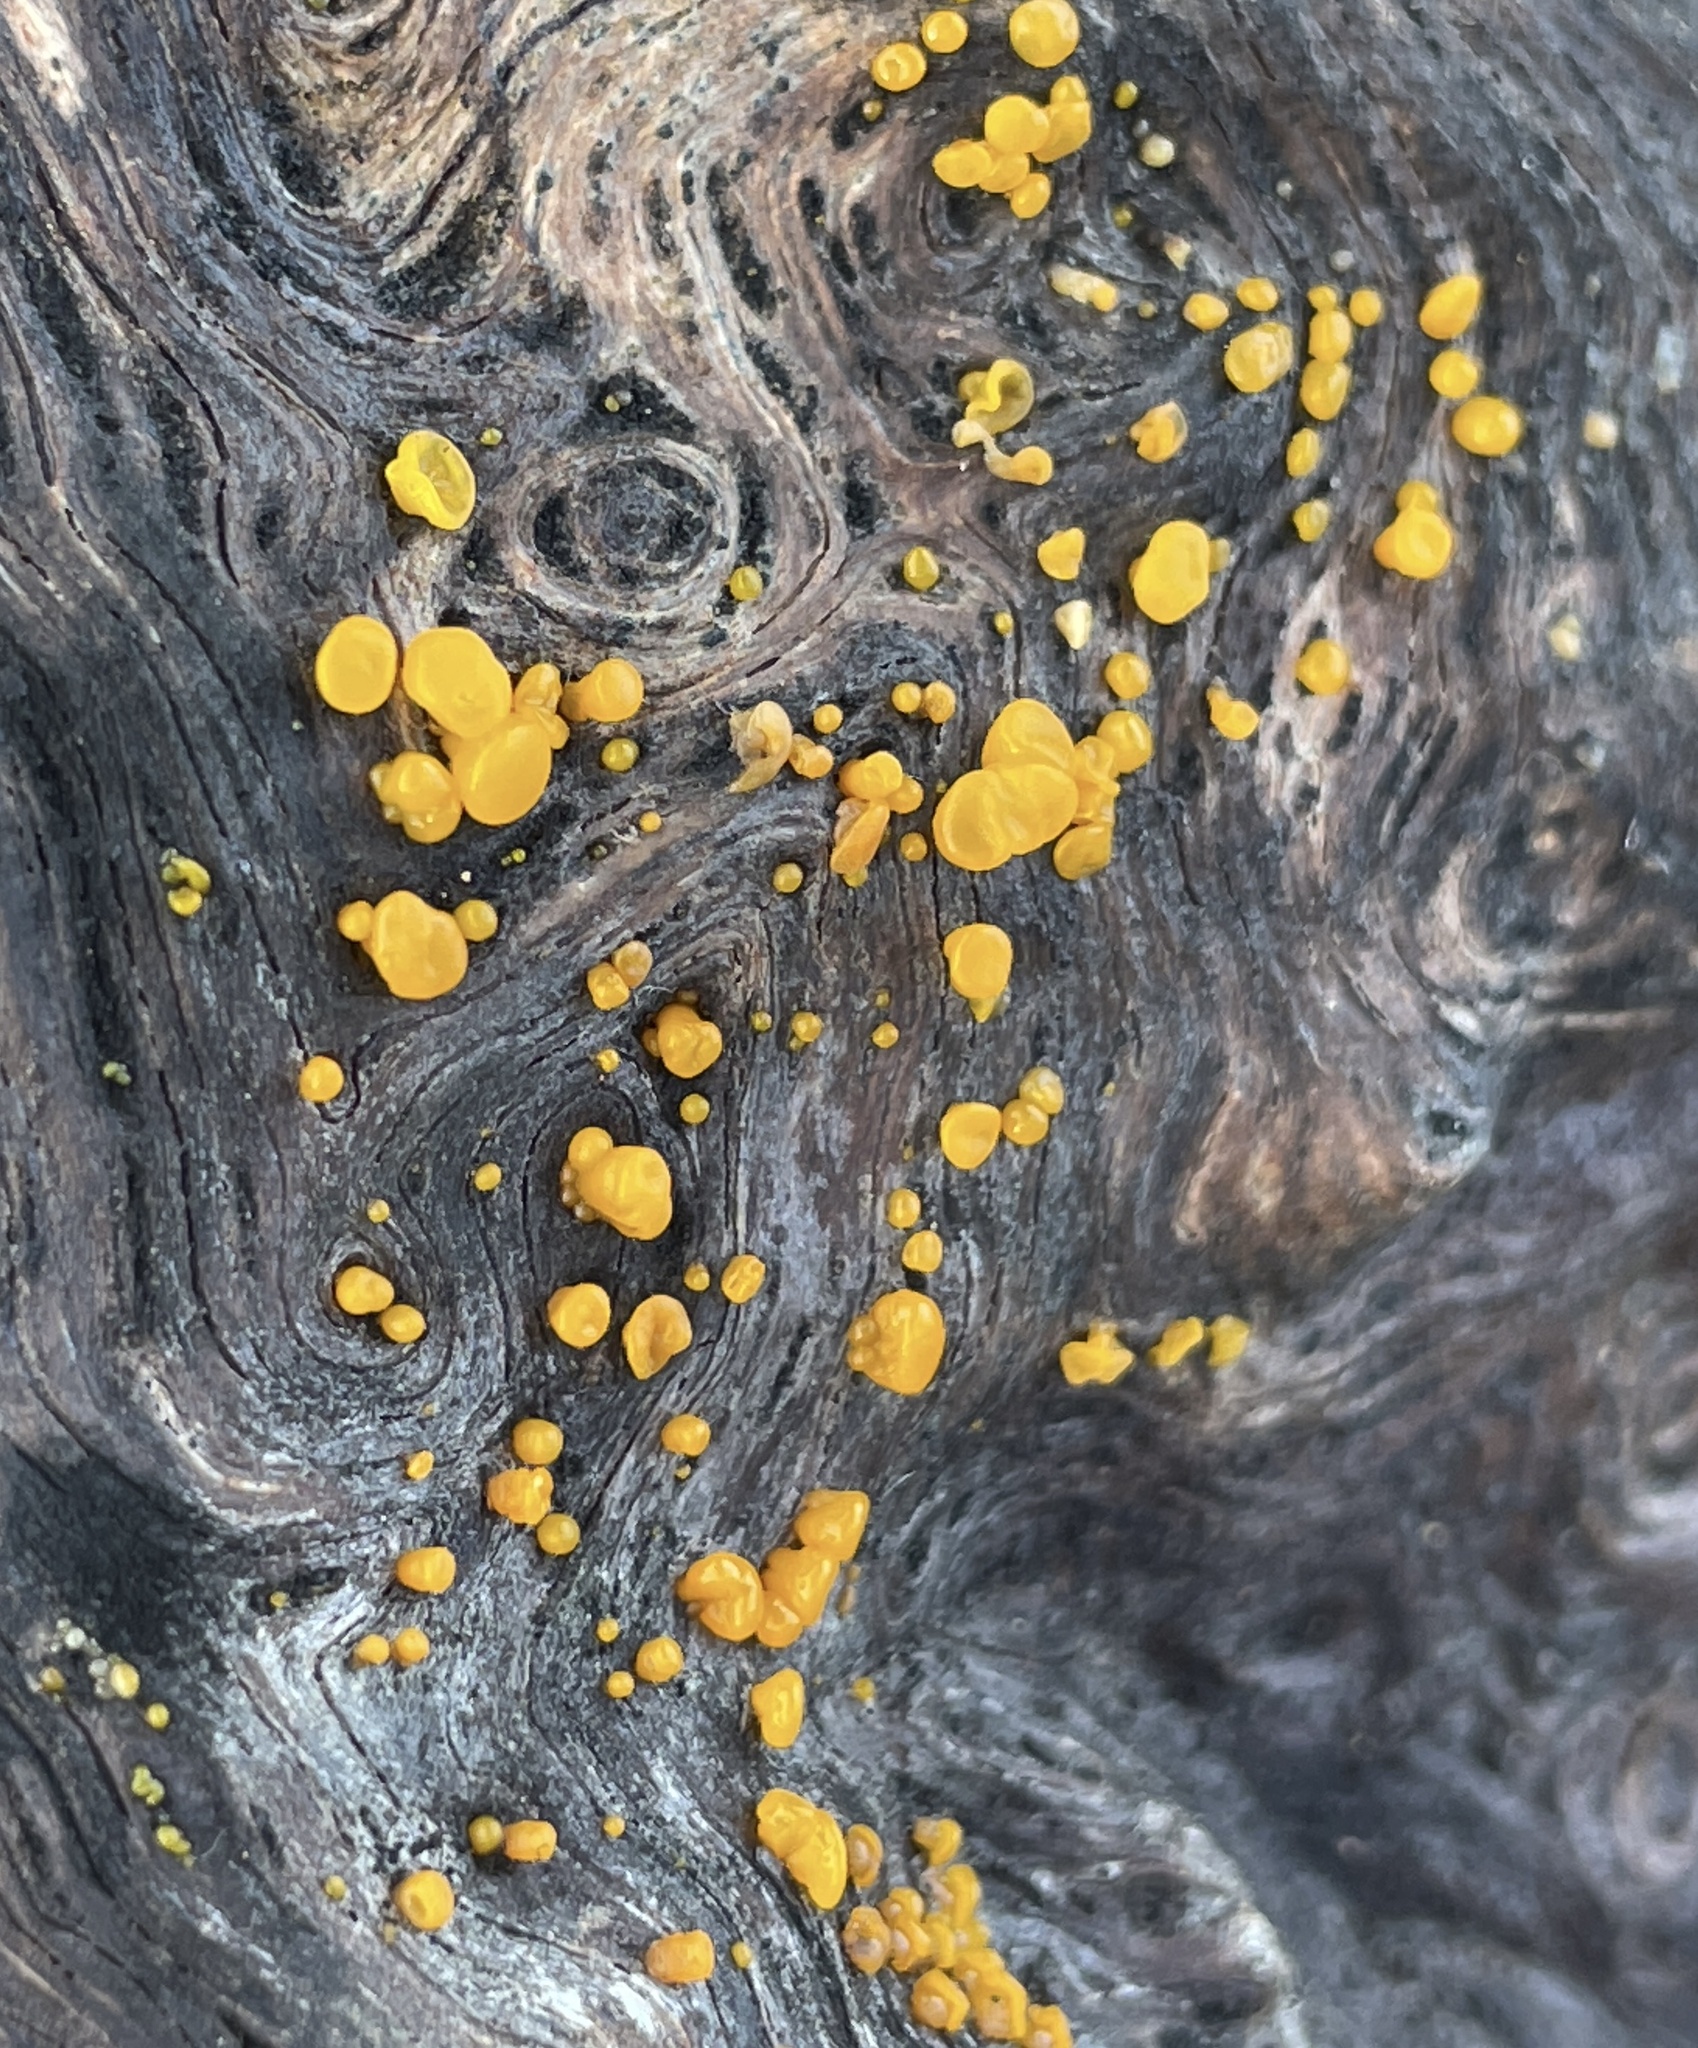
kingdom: Fungi
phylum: Basidiomycota
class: Dacrymycetes
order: Dacrymycetales
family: Dacrymycetaceae
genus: Dacrymyces
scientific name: Dacrymyces capitatus
